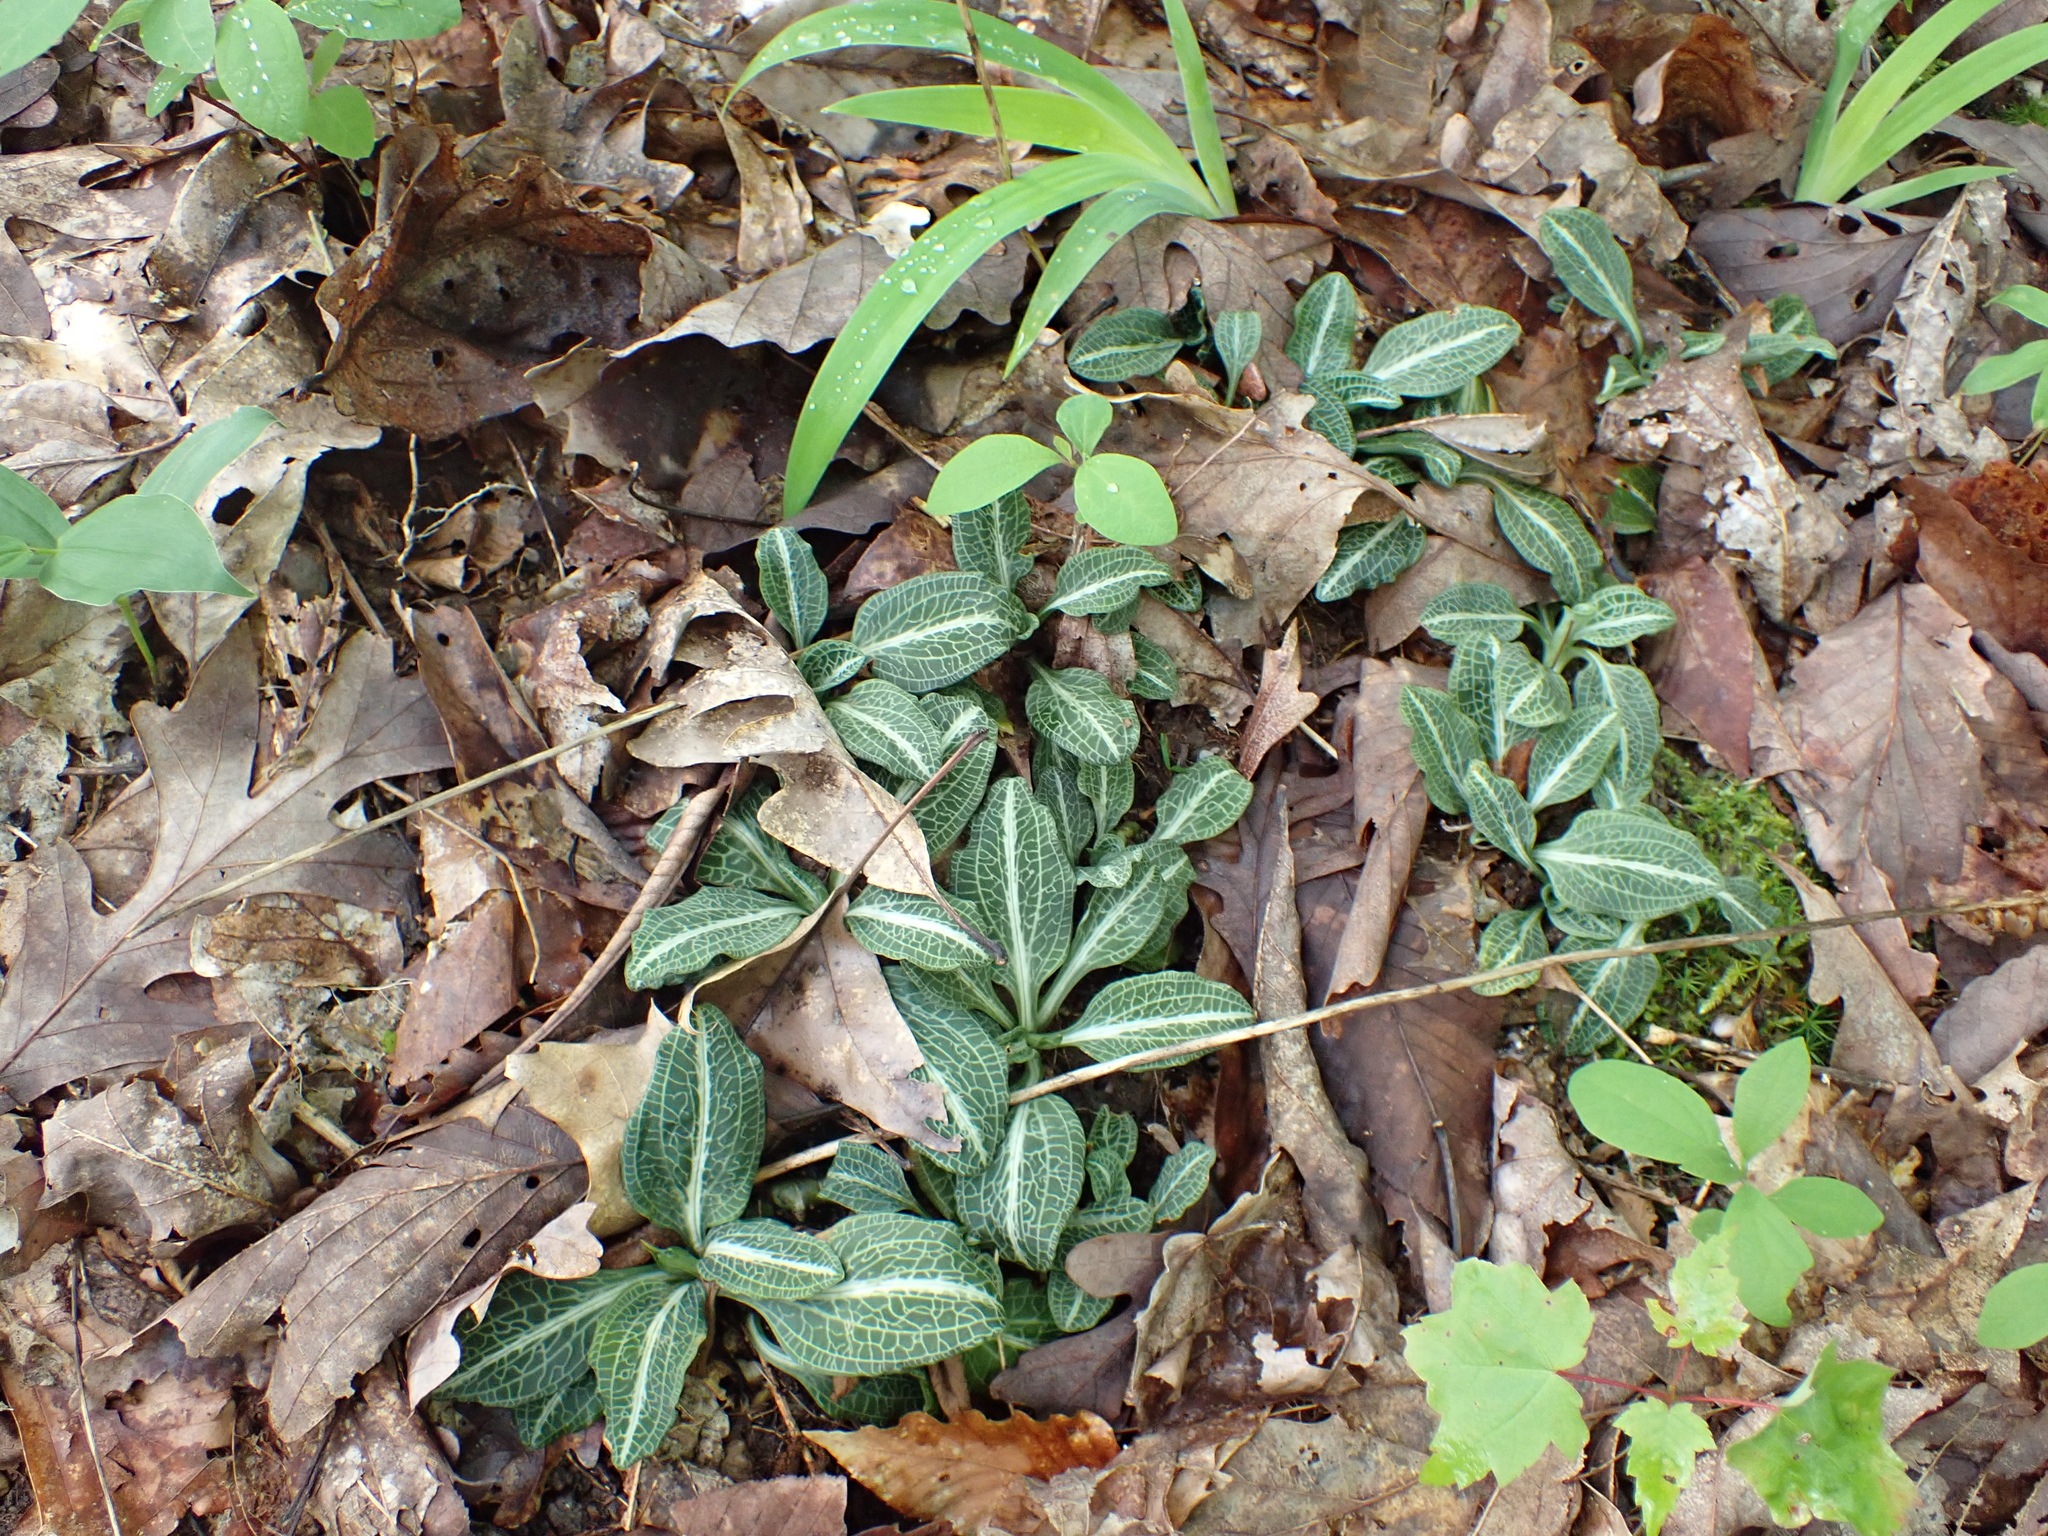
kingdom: Plantae
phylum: Tracheophyta
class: Liliopsida
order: Asparagales
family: Orchidaceae
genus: Goodyera
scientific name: Goodyera pubescens
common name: Downy rattlesnake-plantain
